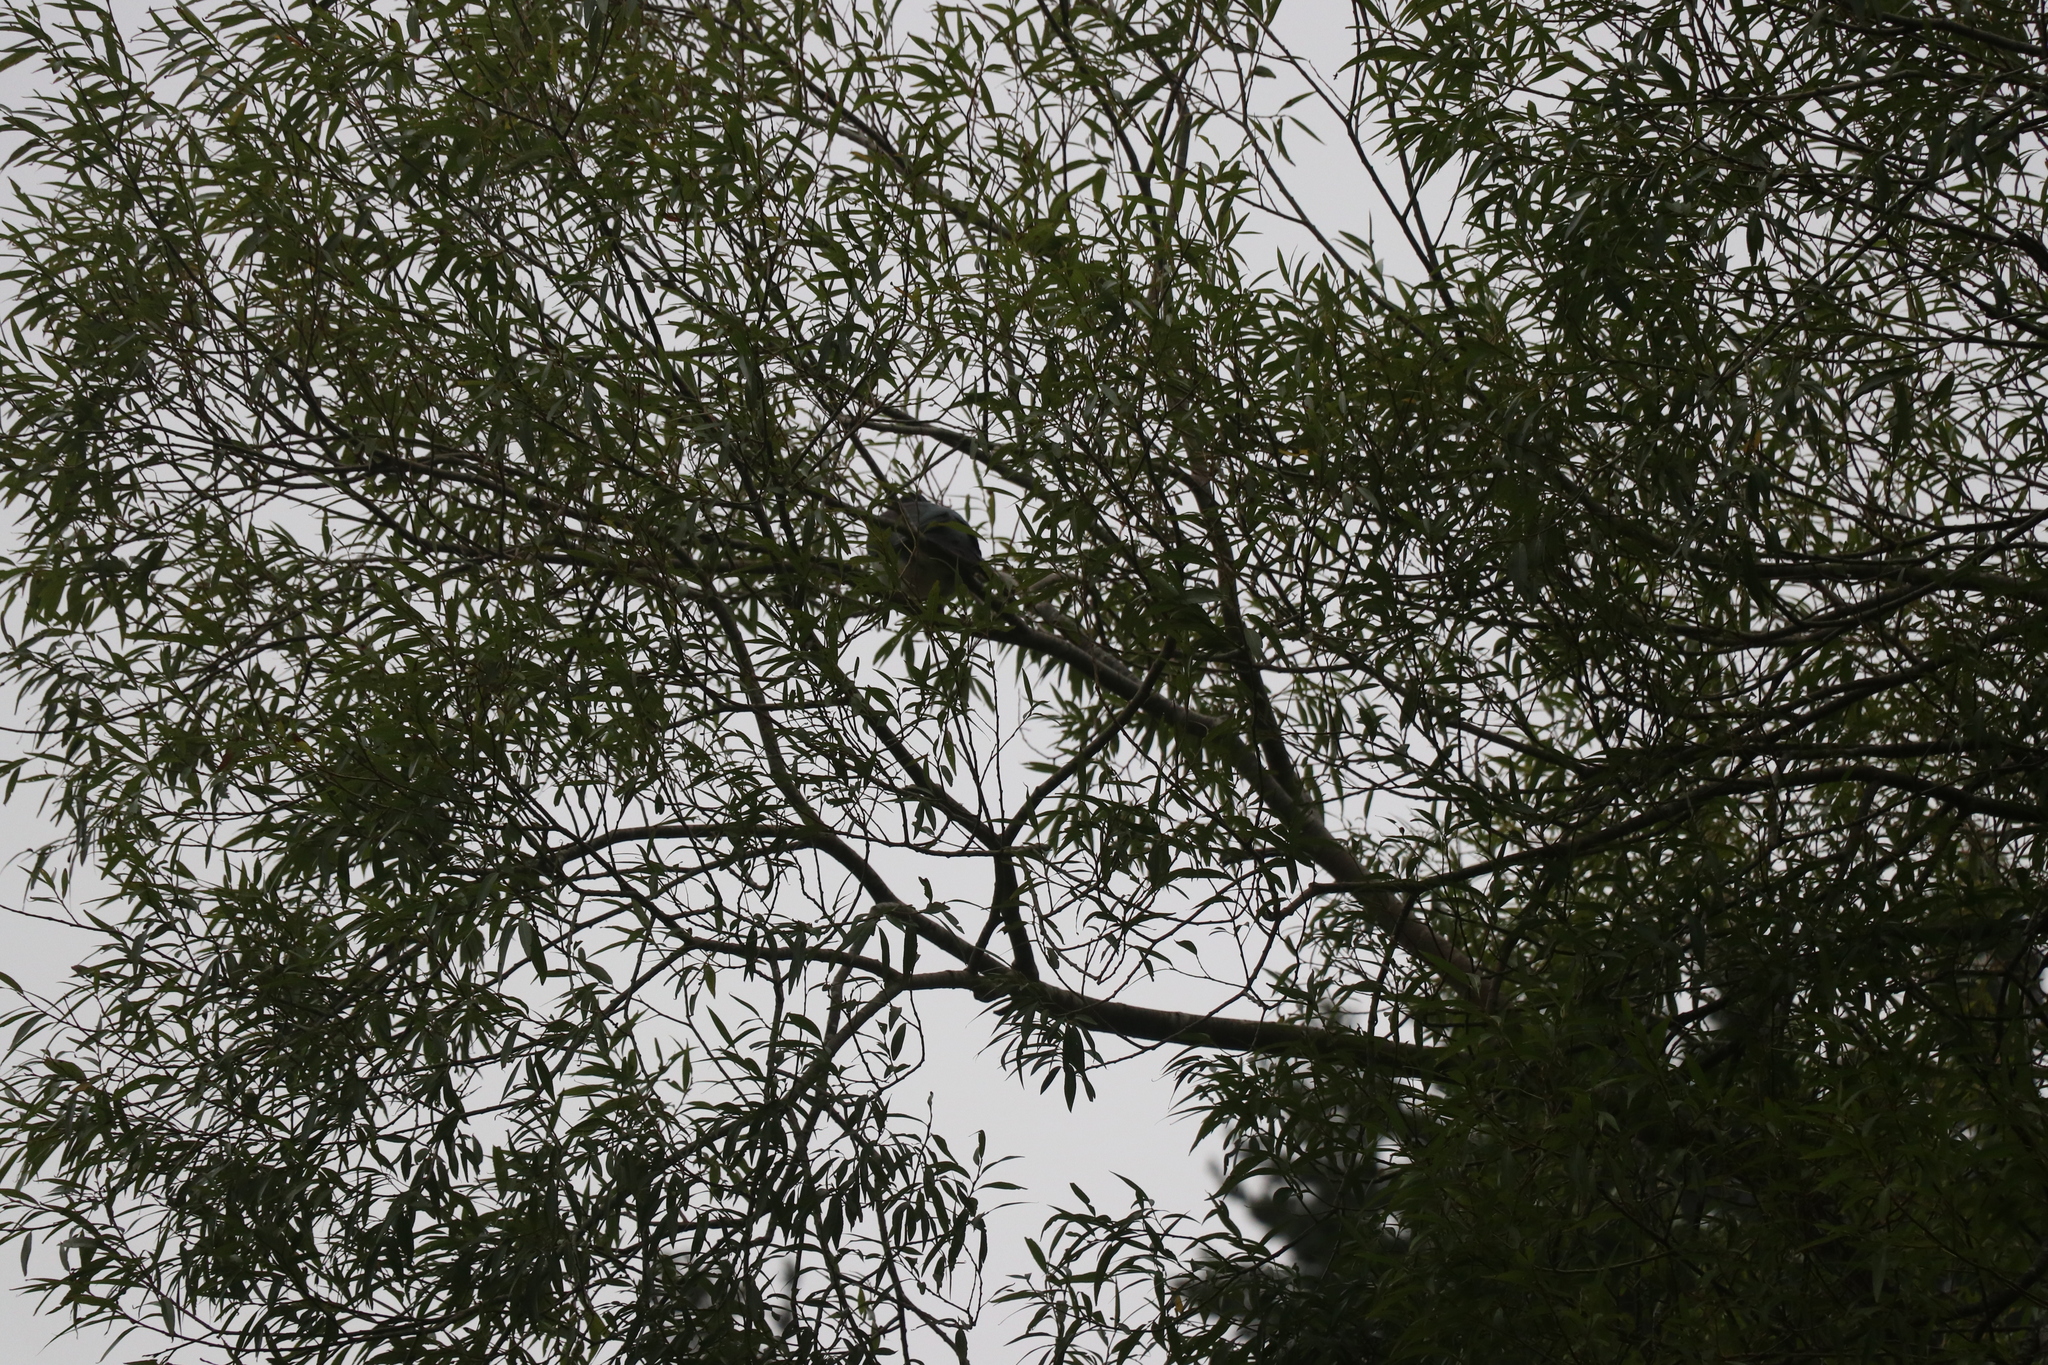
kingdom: Animalia
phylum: Chordata
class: Aves
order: Columbiformes
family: Columbidae
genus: Hemiphaga
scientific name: Hemiphaga novaeseelandiae
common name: New zealand pigeon
